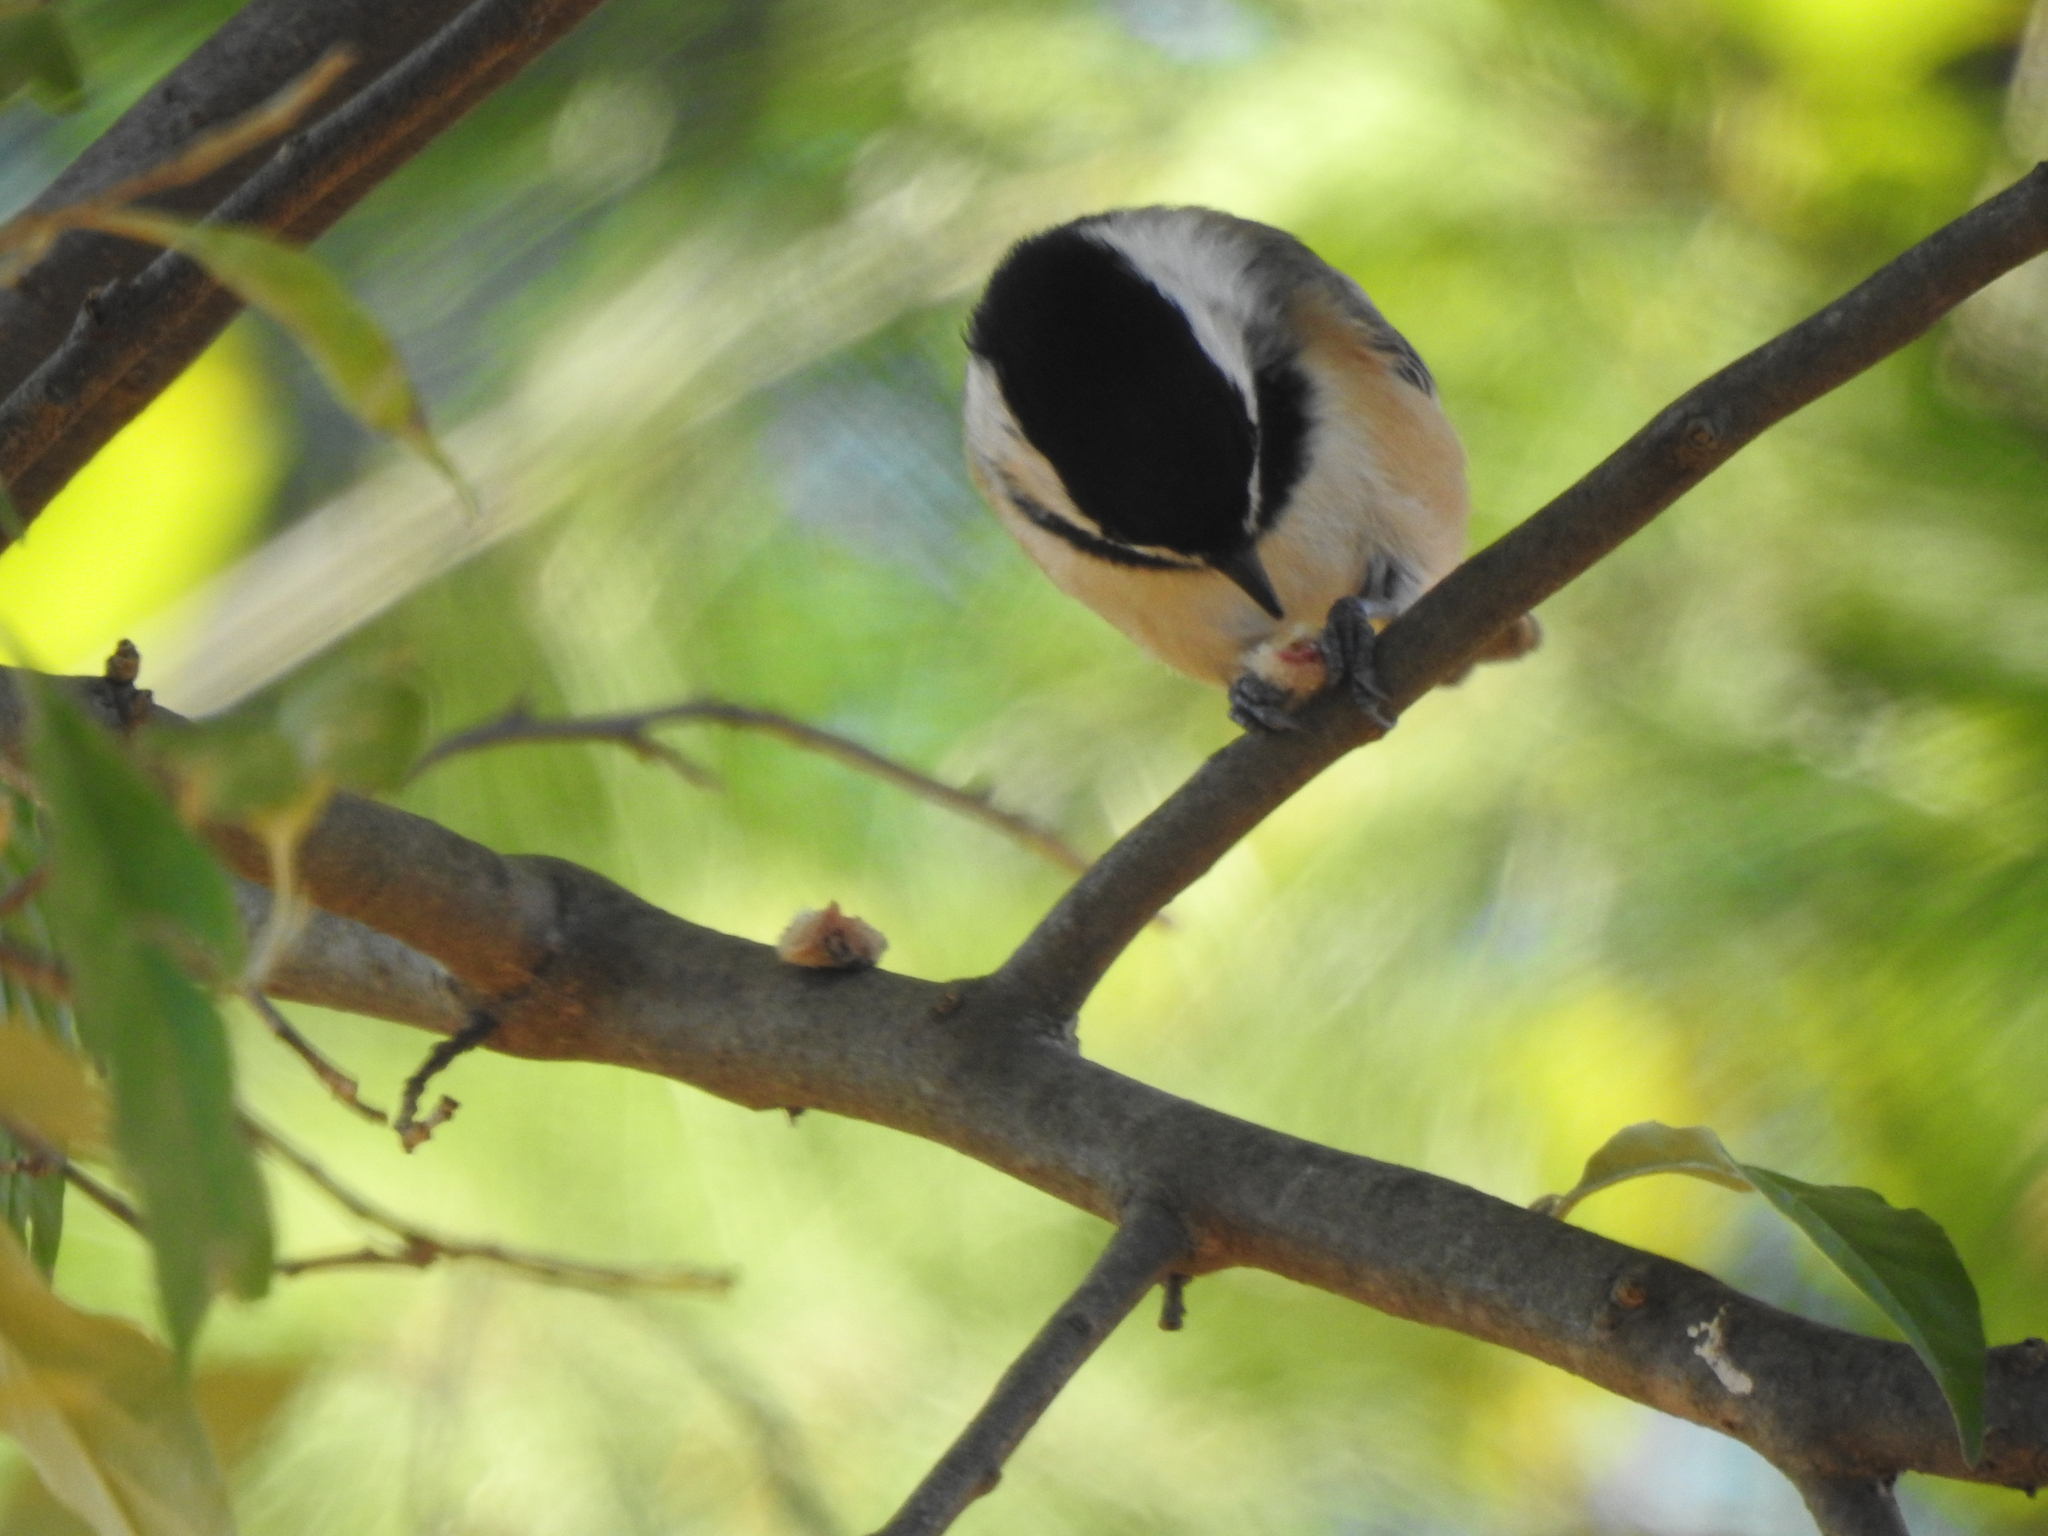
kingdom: Animalia
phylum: Chordata
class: Aves
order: Passeriformes
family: Paridae
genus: Poecile
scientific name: Poecile atricapillus
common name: Black-capped chickadee
